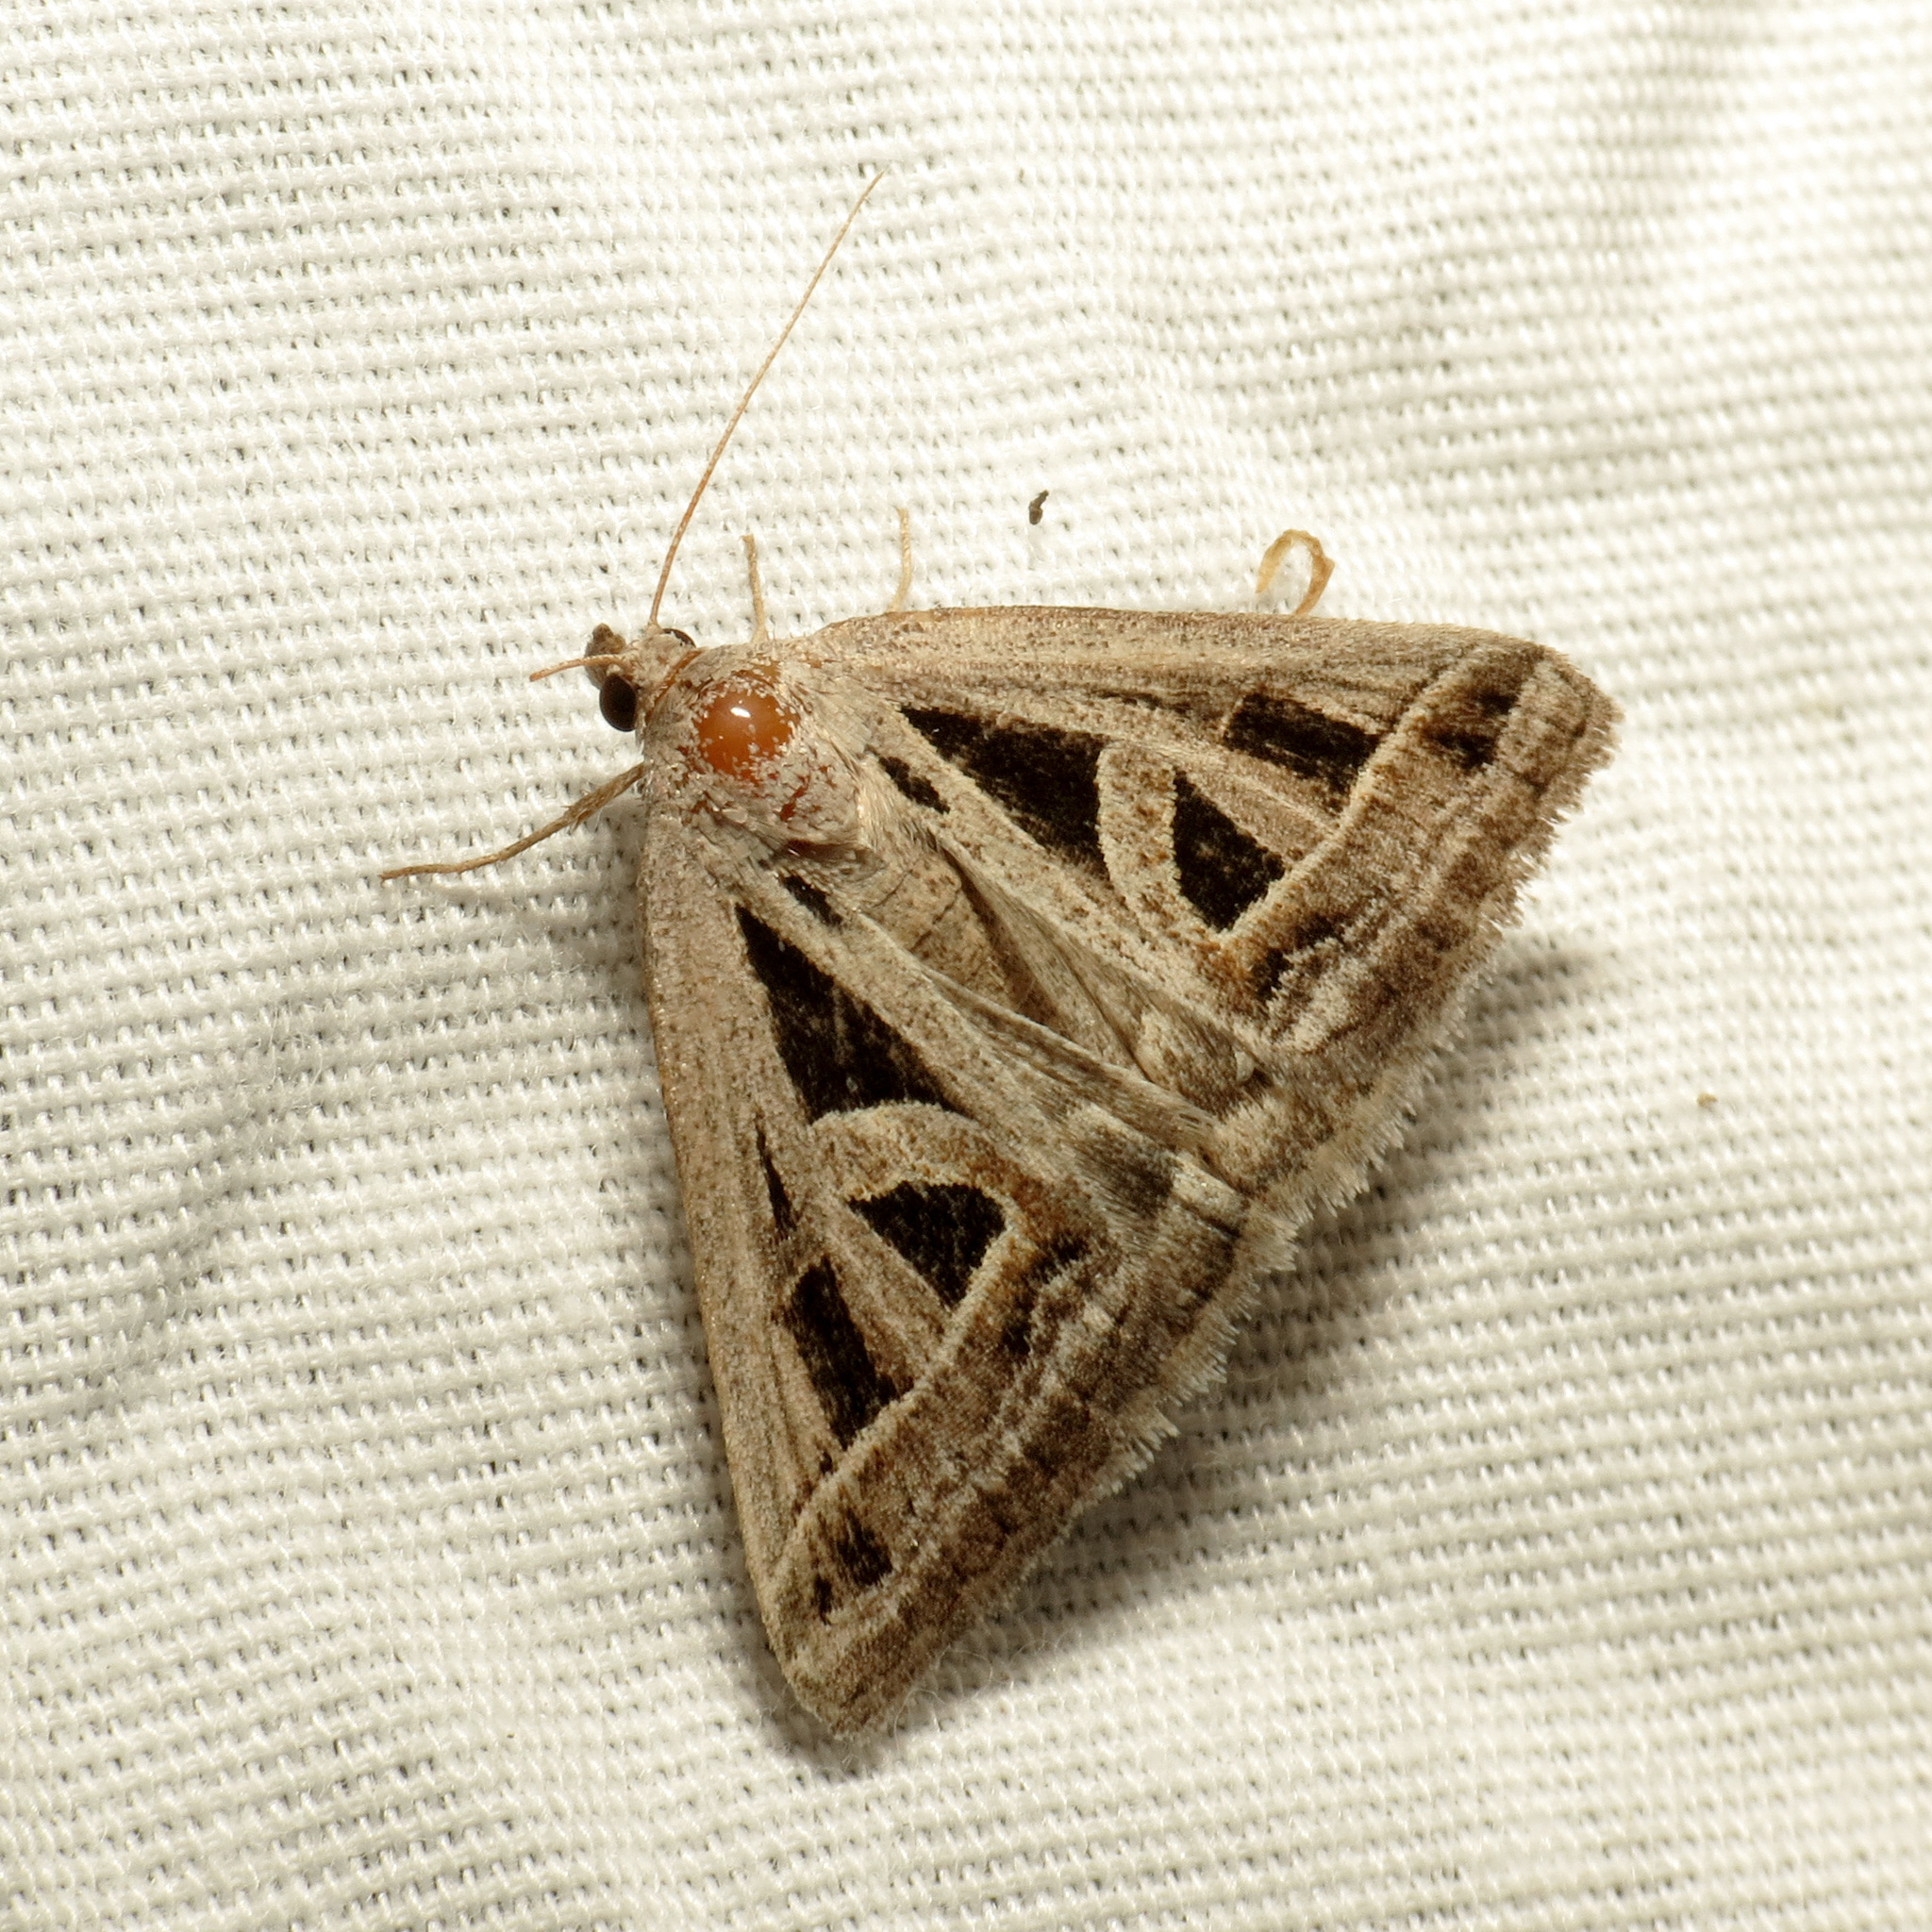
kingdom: Animalia
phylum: Arthropoda
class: Insecta
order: Lepidoptera
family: Erebidae
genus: Callistege
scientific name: Callistege diagonalis
